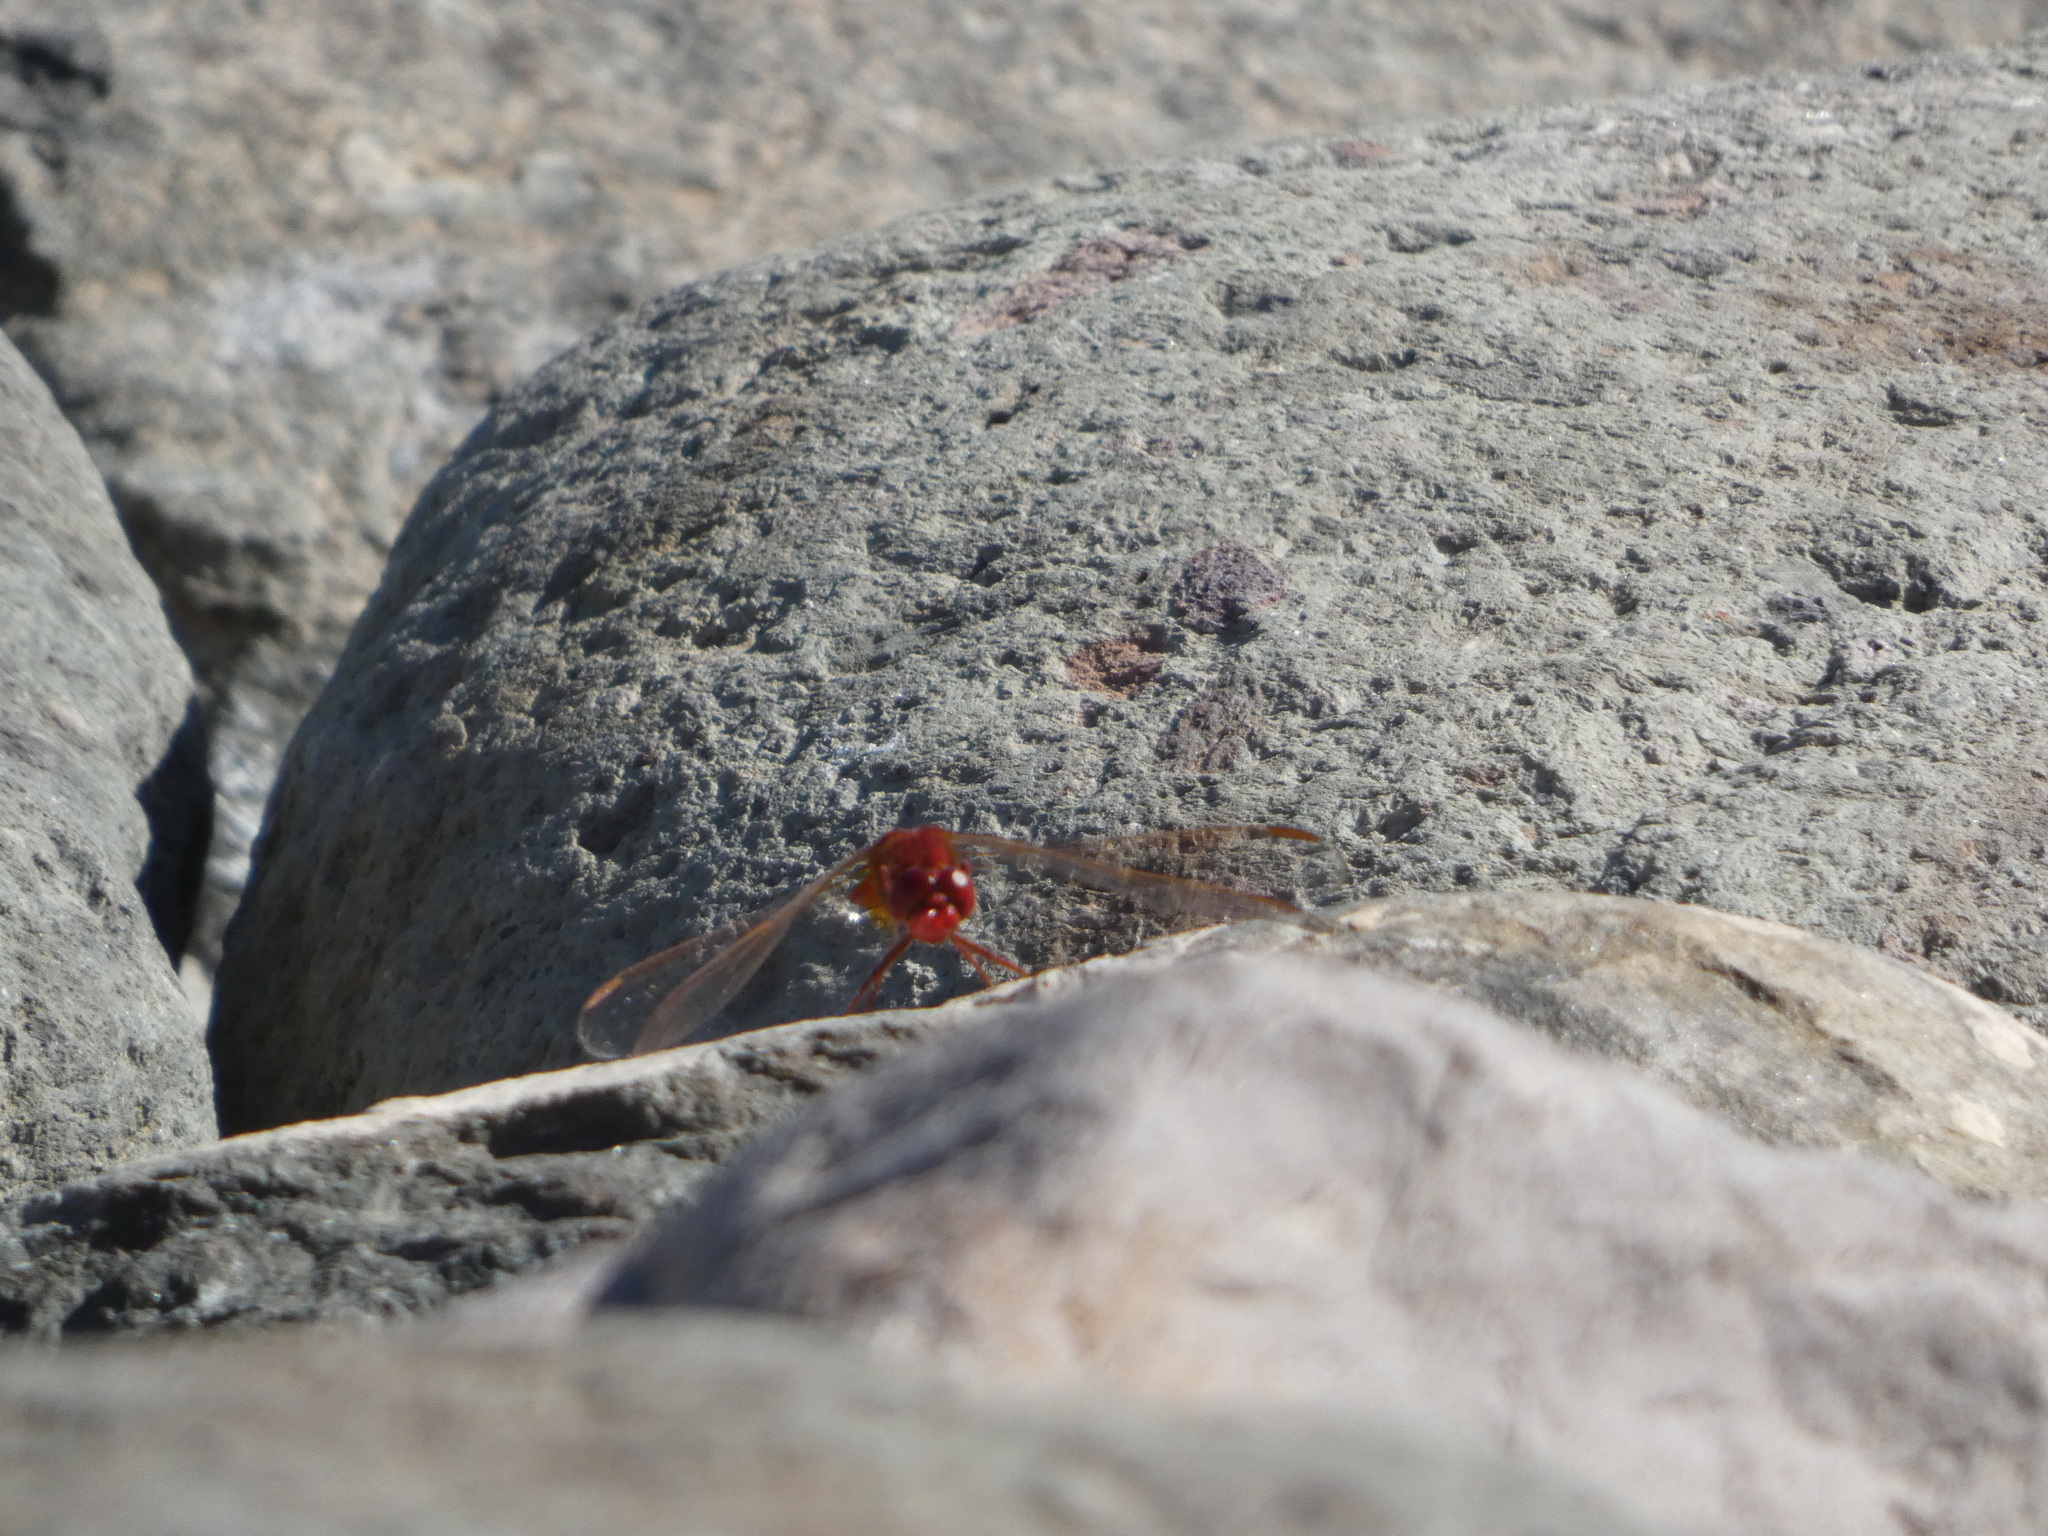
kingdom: Animalia
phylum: Arthropoda
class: Insecta
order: Odonata
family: Libellulidae
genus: Crocothemis
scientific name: Crocothemis erythraea
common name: Scarlet dragonfly
